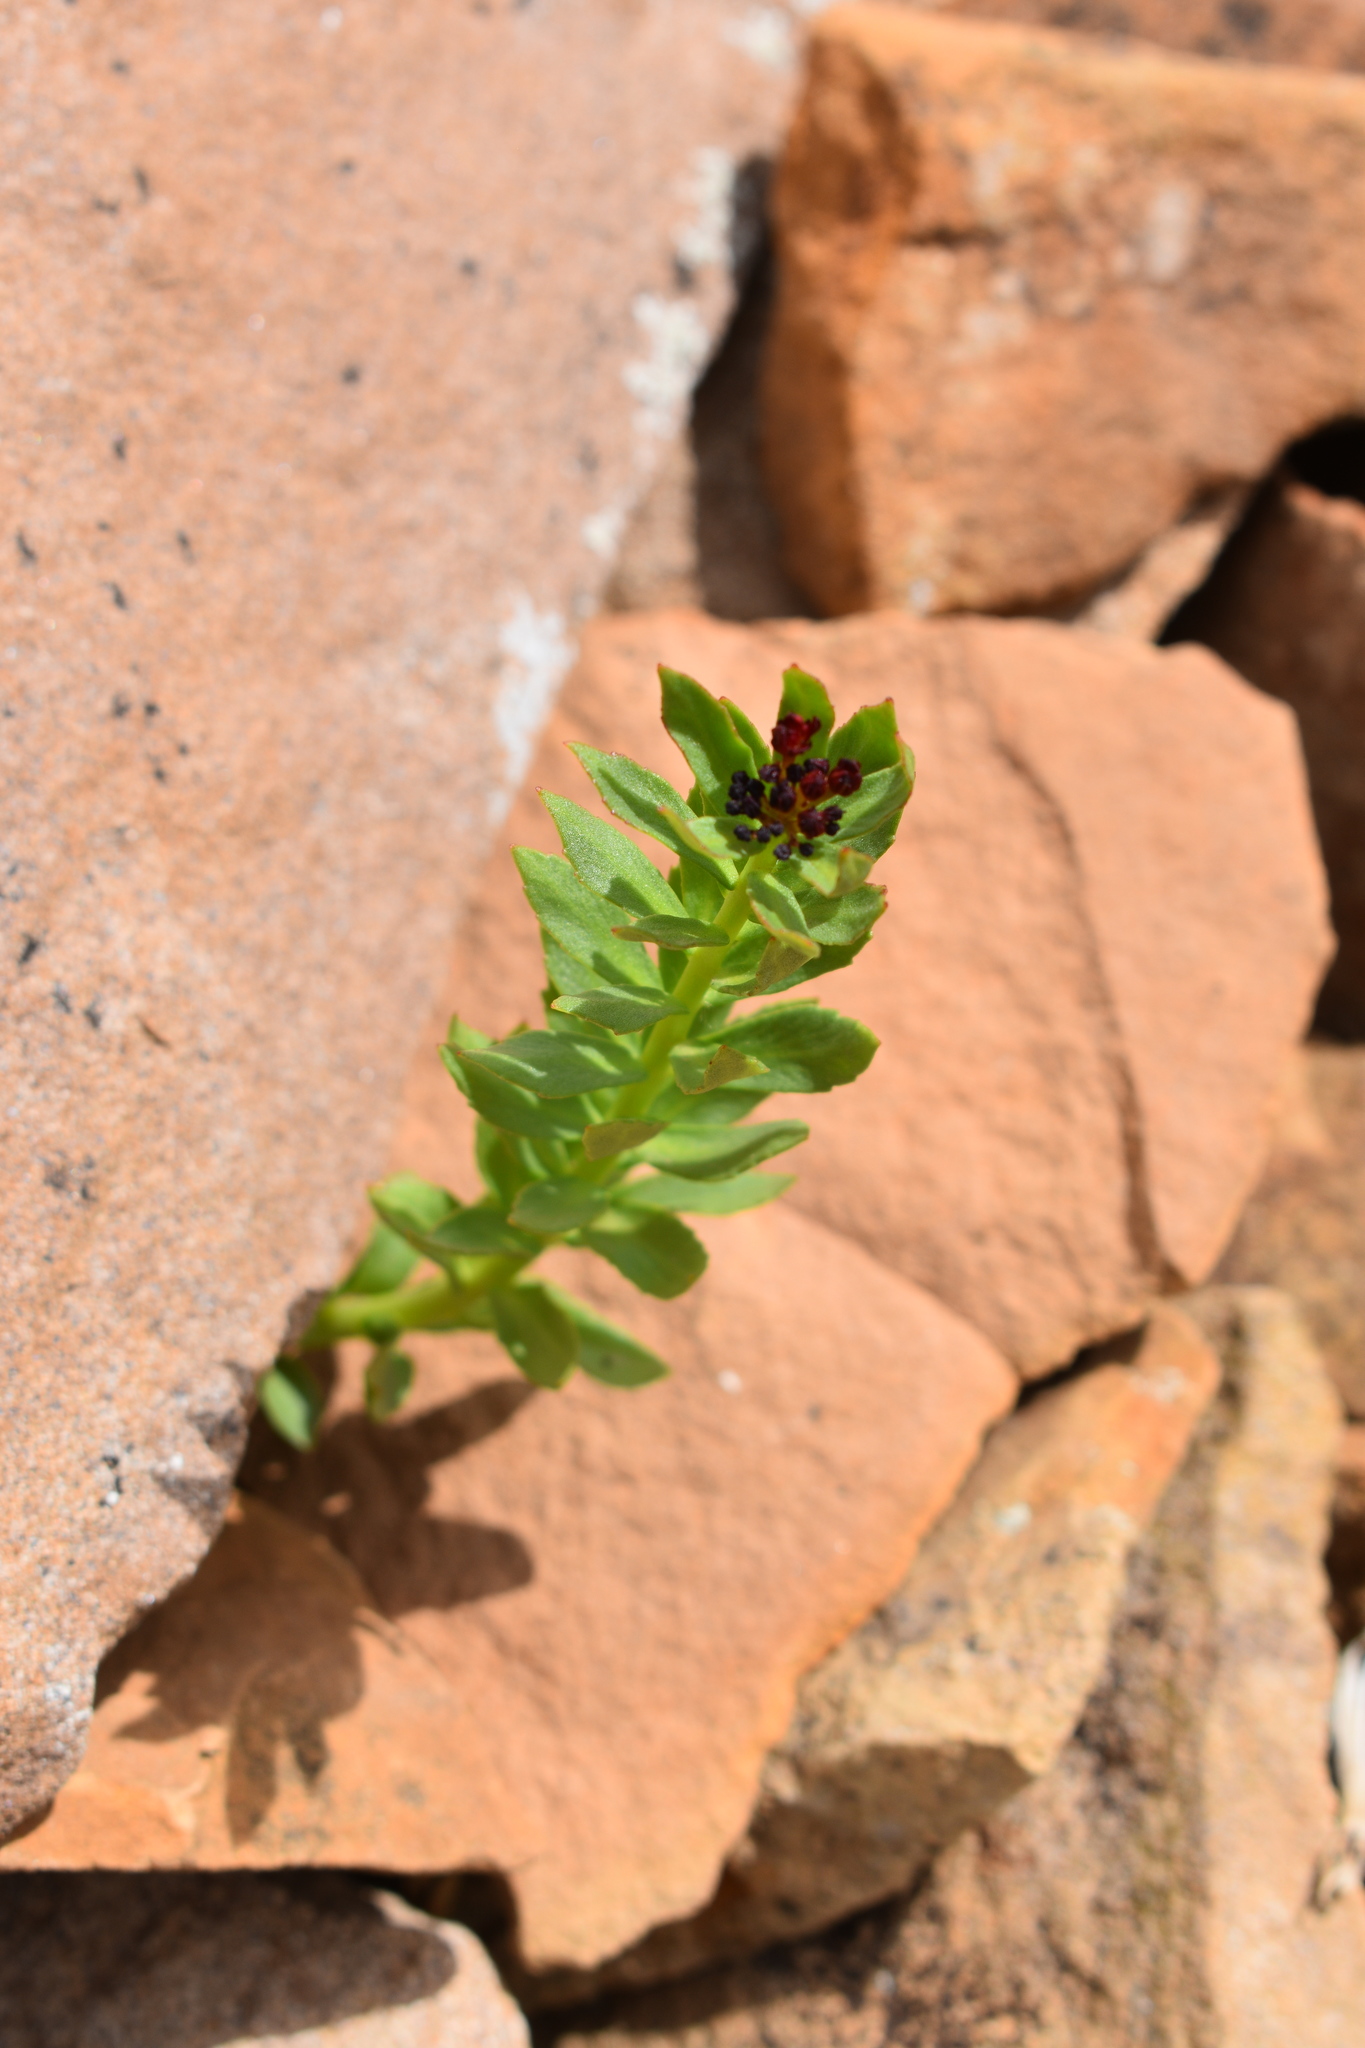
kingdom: Plantae
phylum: Tracheophyta
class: Magnoliopsida
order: Saxifragales
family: Crassulaceae
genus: Rhodiola
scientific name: Rhodiola integrifolia
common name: Western roseroot
